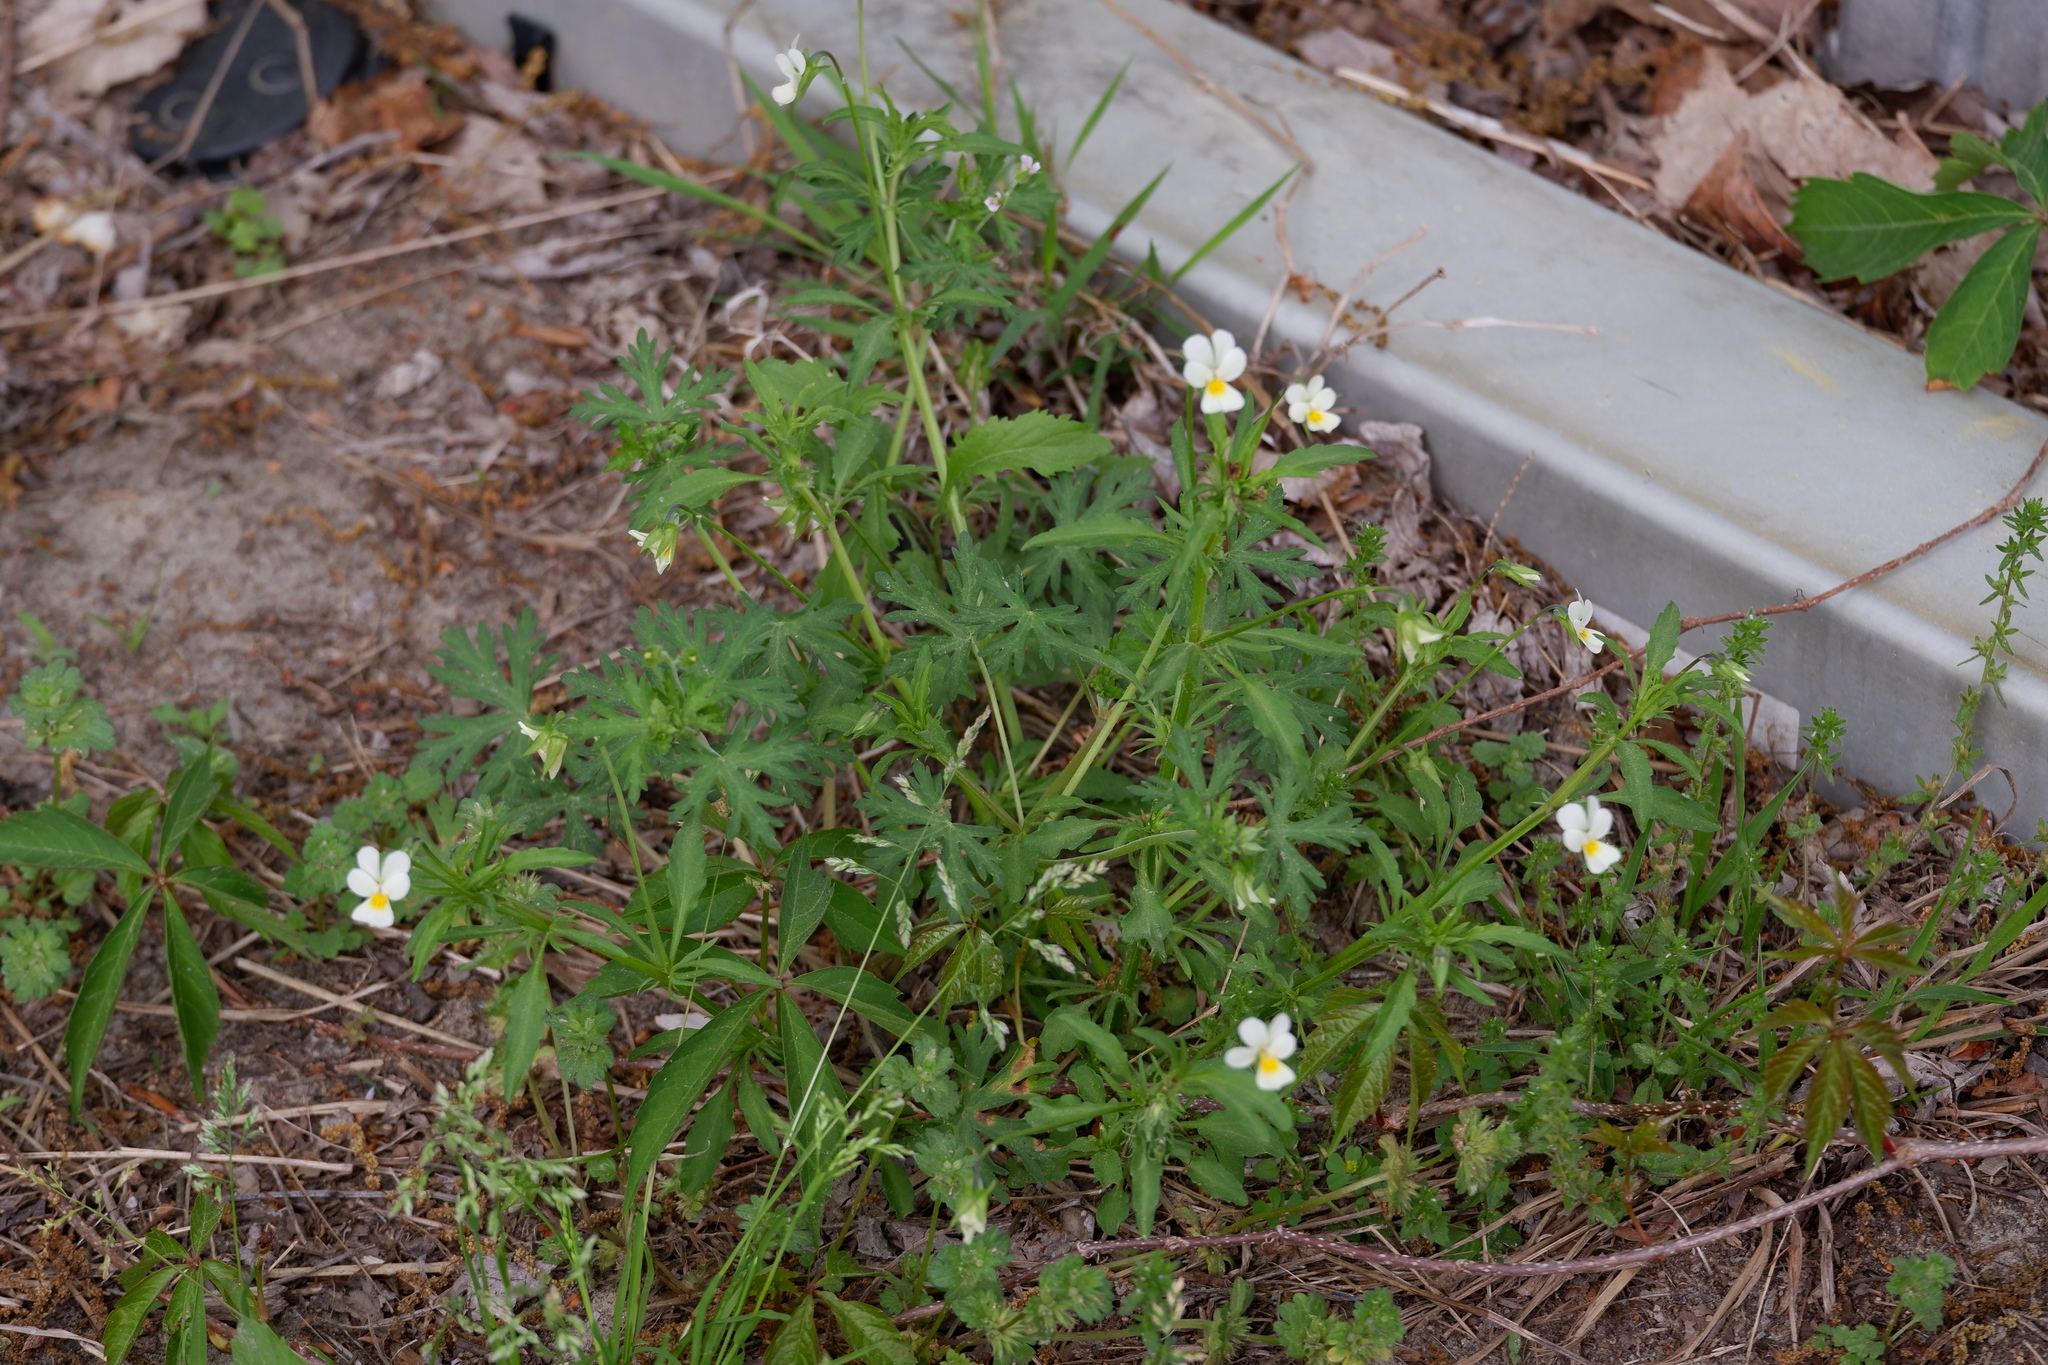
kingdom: Plantae
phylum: Tracheophyta
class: Magnoliopsida
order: Geraniales
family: Geraniaceae
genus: Geranium
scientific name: Geranium carolinianum
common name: Carolina crane's-bill
